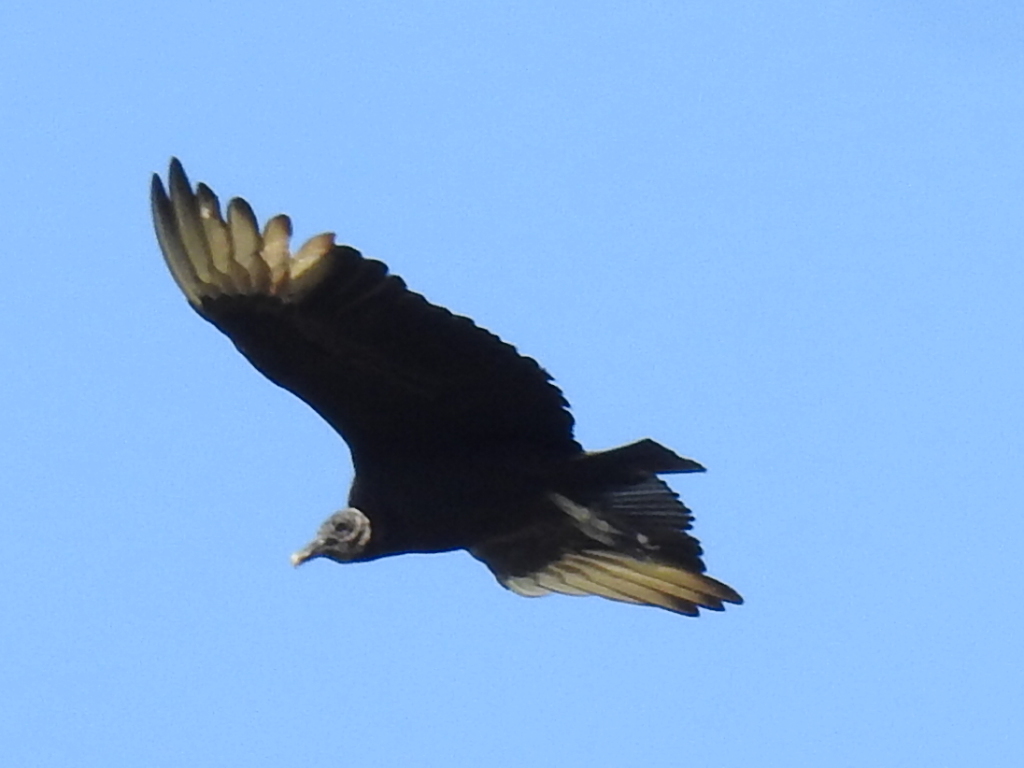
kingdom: Animalia
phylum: Chordata
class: Aves
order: Accipitriformes
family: Cathartidae
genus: Coragyps
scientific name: Coragyps atratus
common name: Black vulture
